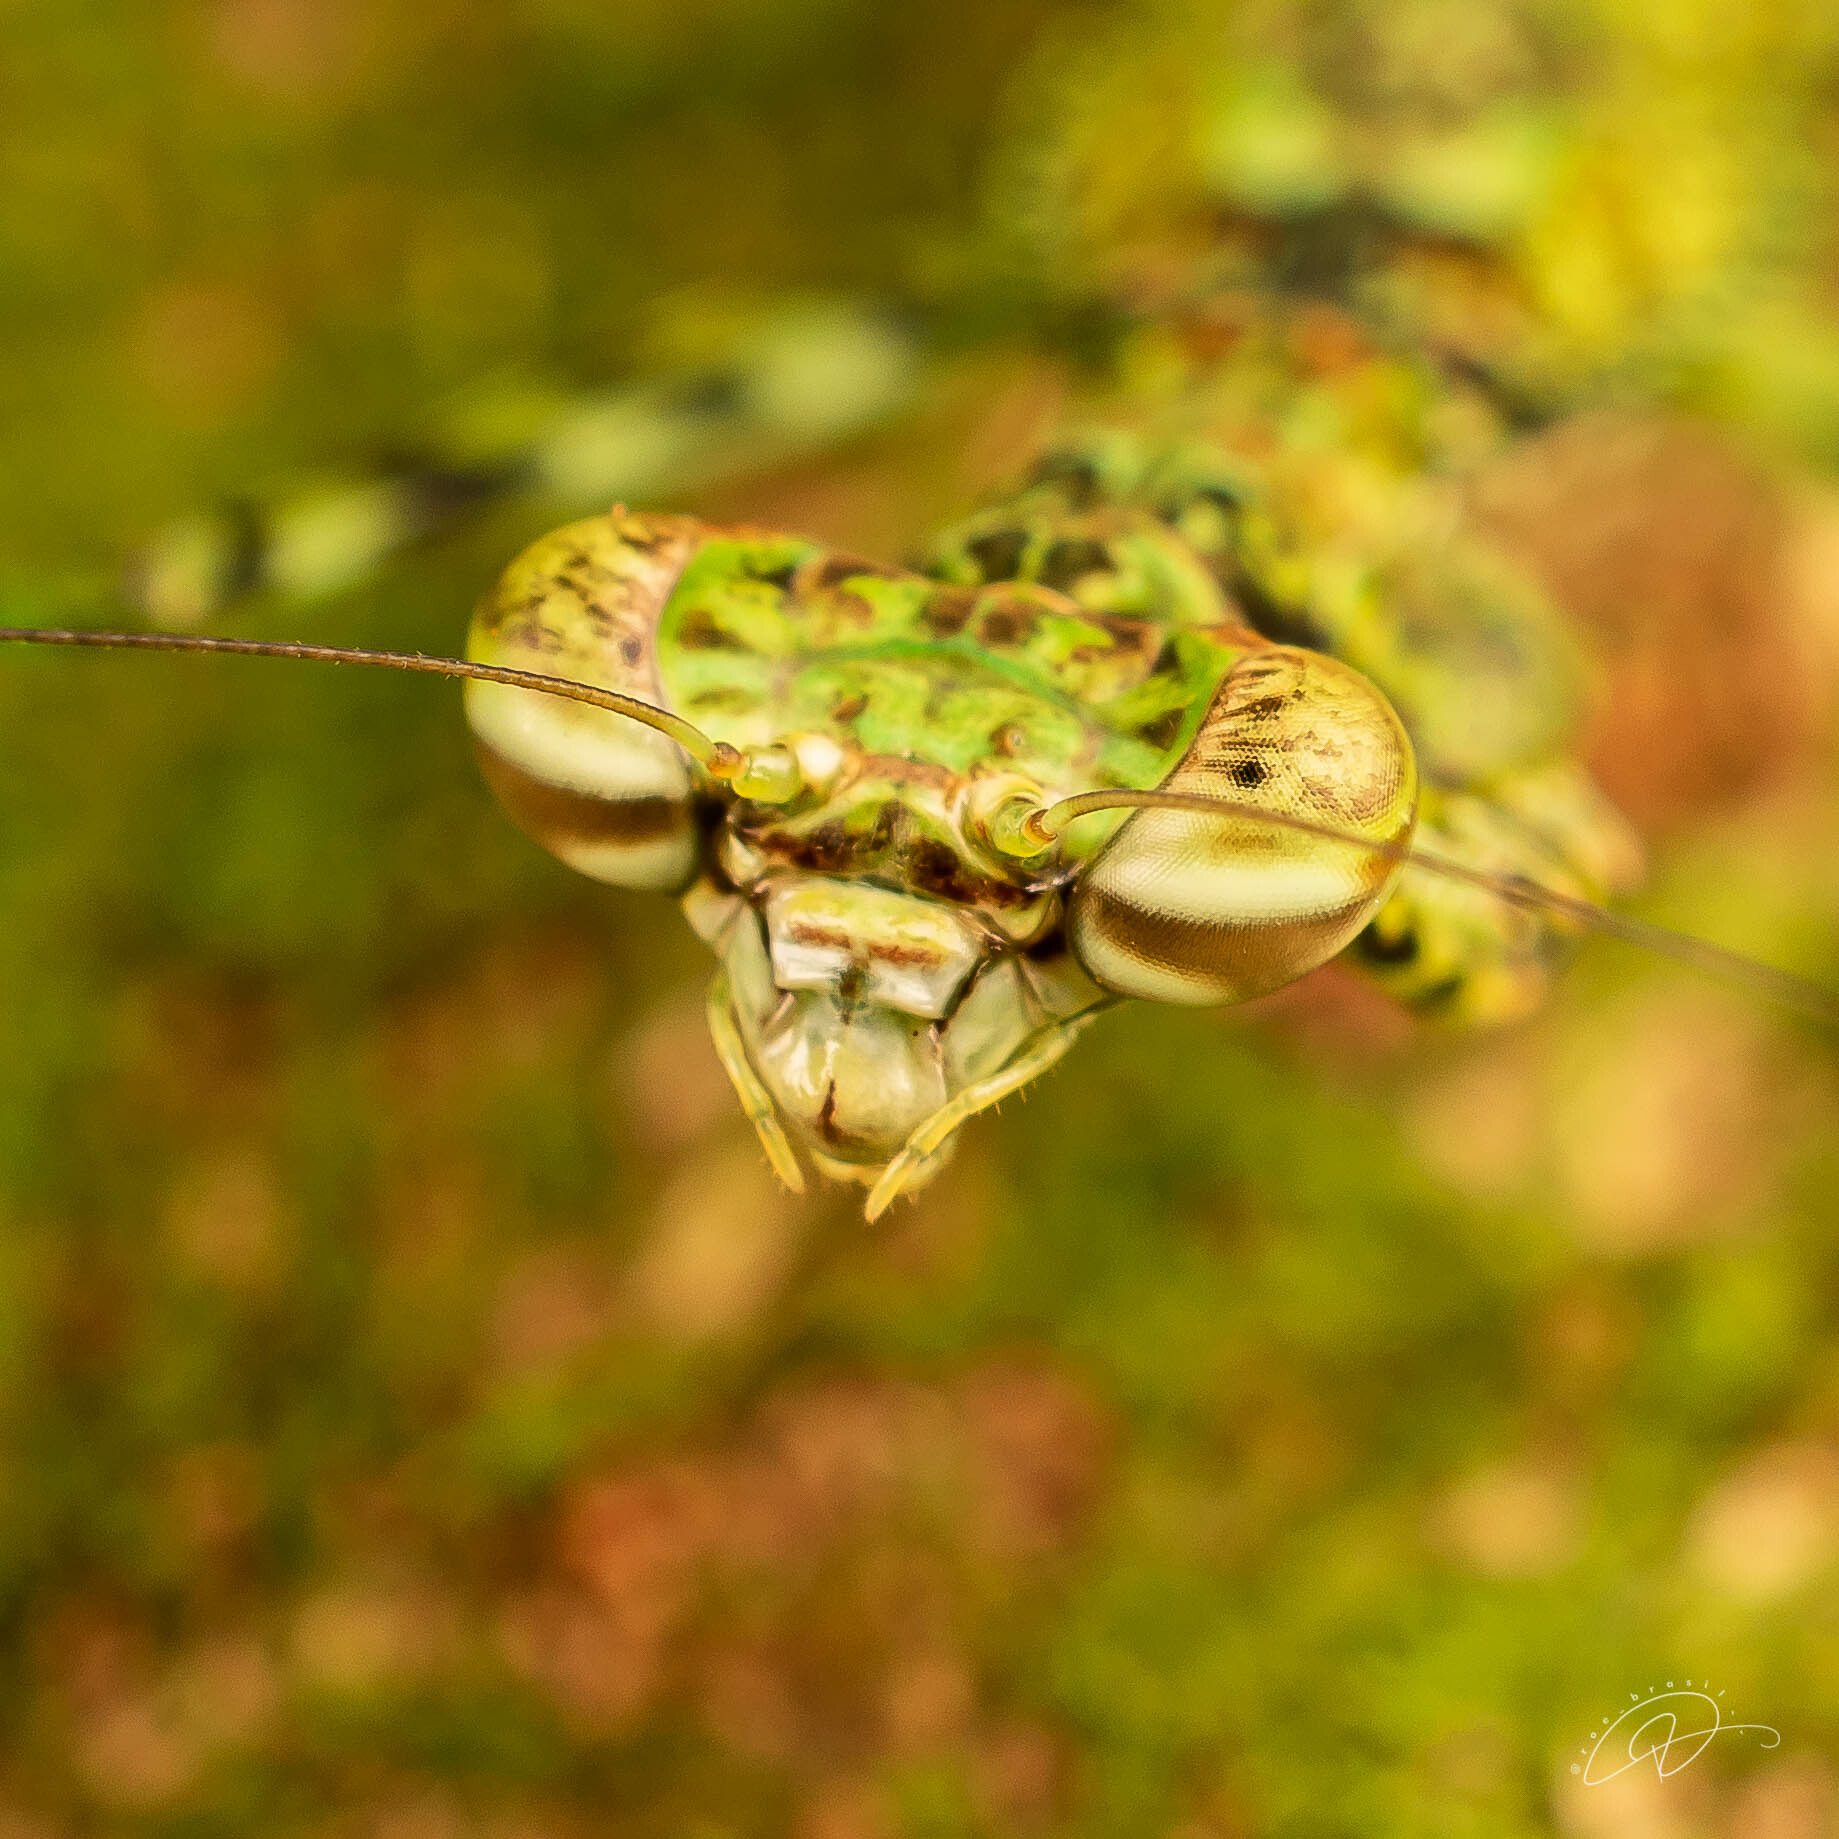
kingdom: Animalia
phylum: Arthropoda
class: Insecta
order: Mantodea
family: Liturgusidae
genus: Fuga
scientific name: Fuga annulipes
